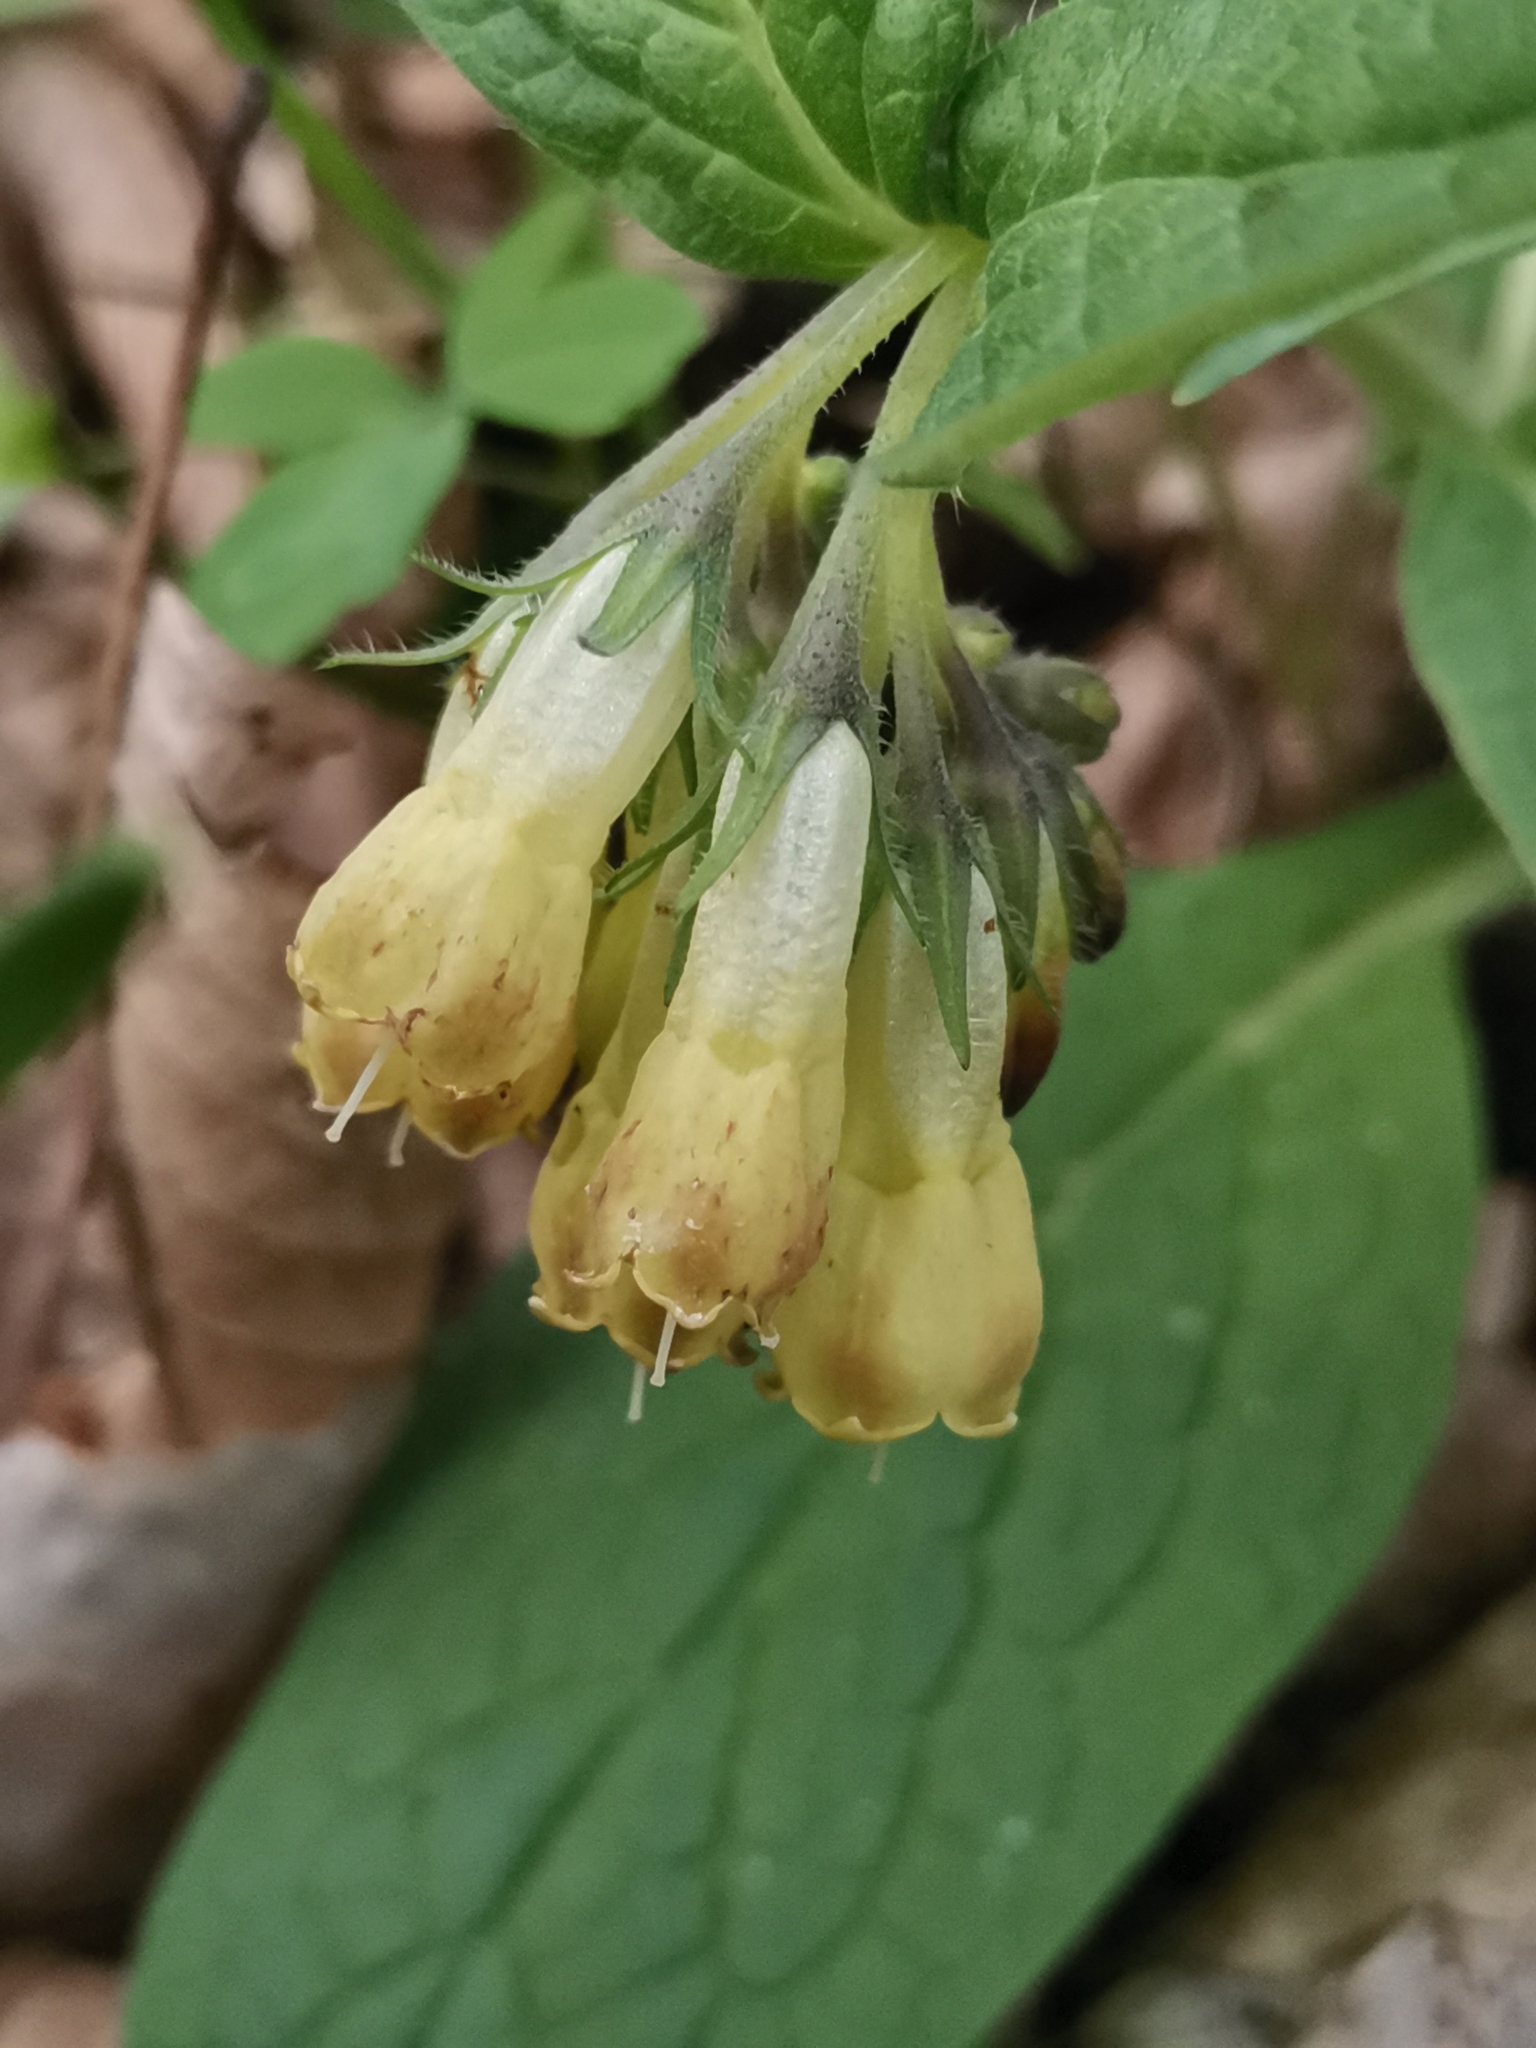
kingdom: Plantae
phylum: Tracheophyta
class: Magnoliopsida
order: Boraginales
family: Boraginaceae
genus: Symphytum
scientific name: Symphytum tuberosum
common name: Tuberous comfrey
